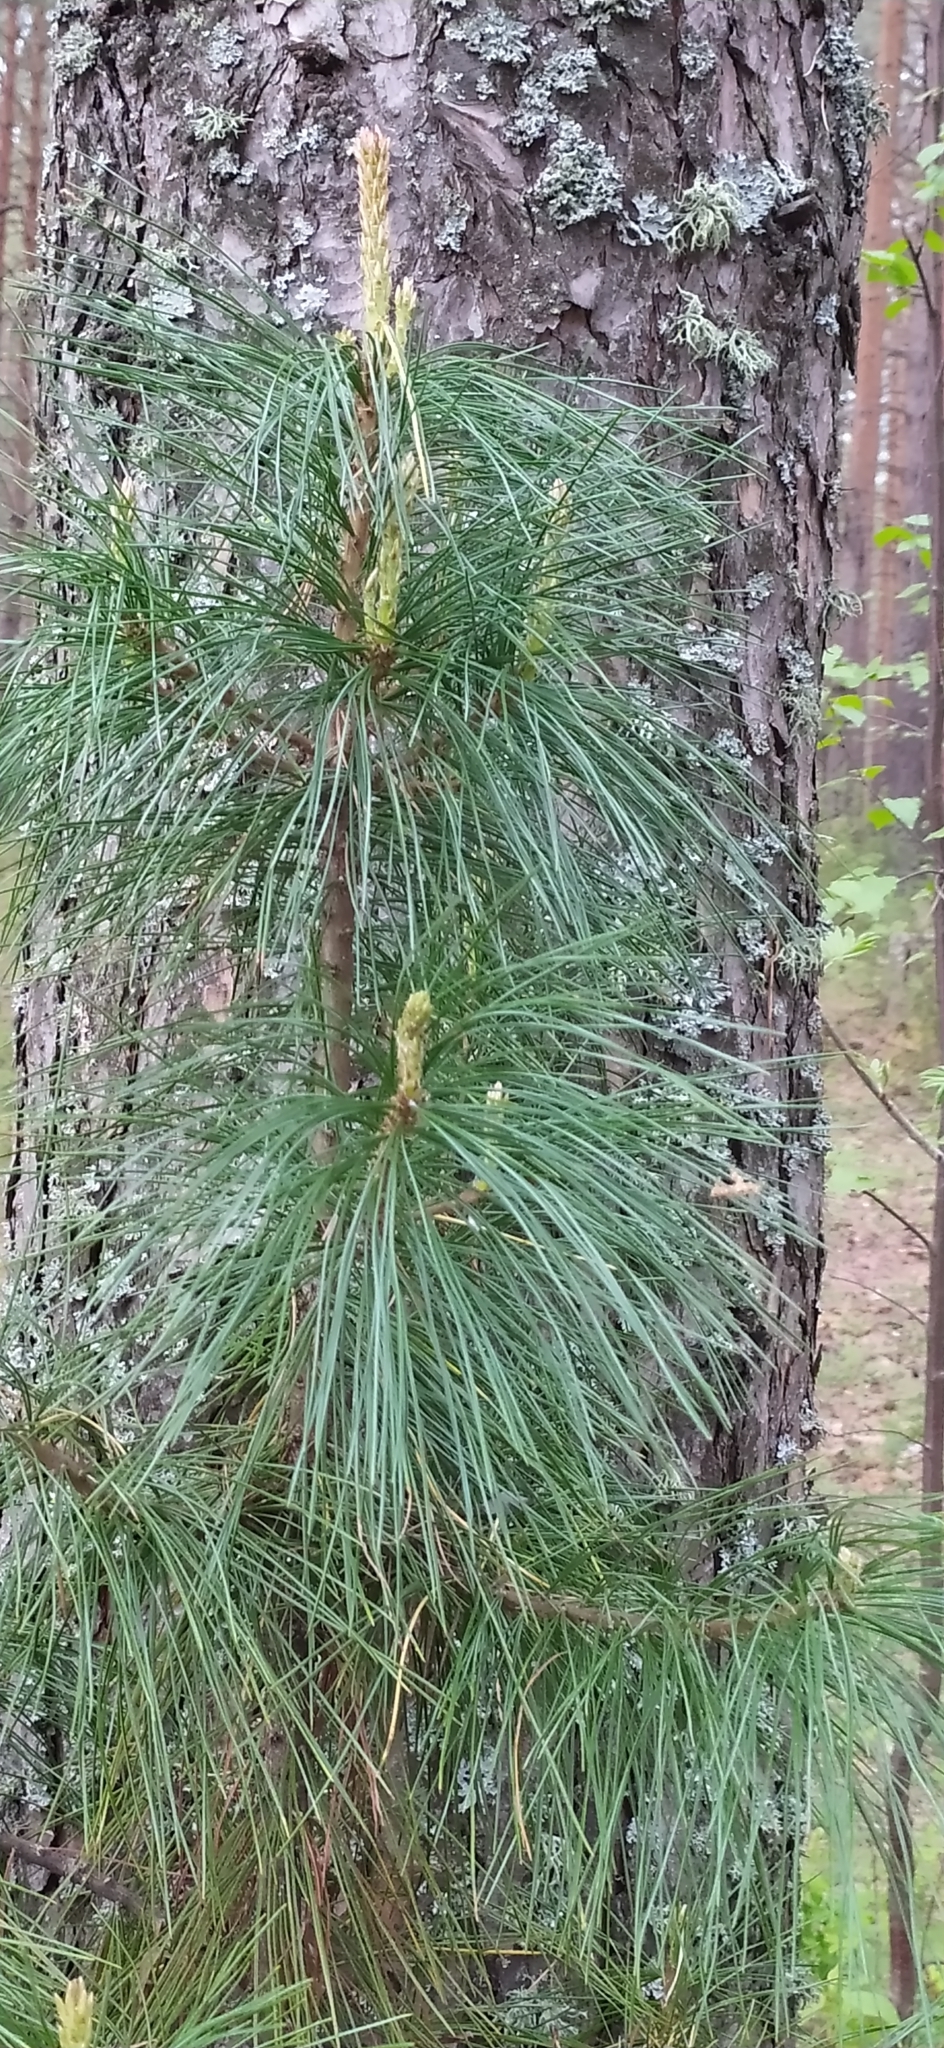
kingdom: Plantae
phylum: Tracheophyta
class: Pinopsida
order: Pinales
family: Pinaceae
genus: Pinus
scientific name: Pinus sibirica
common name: Siberian pine
